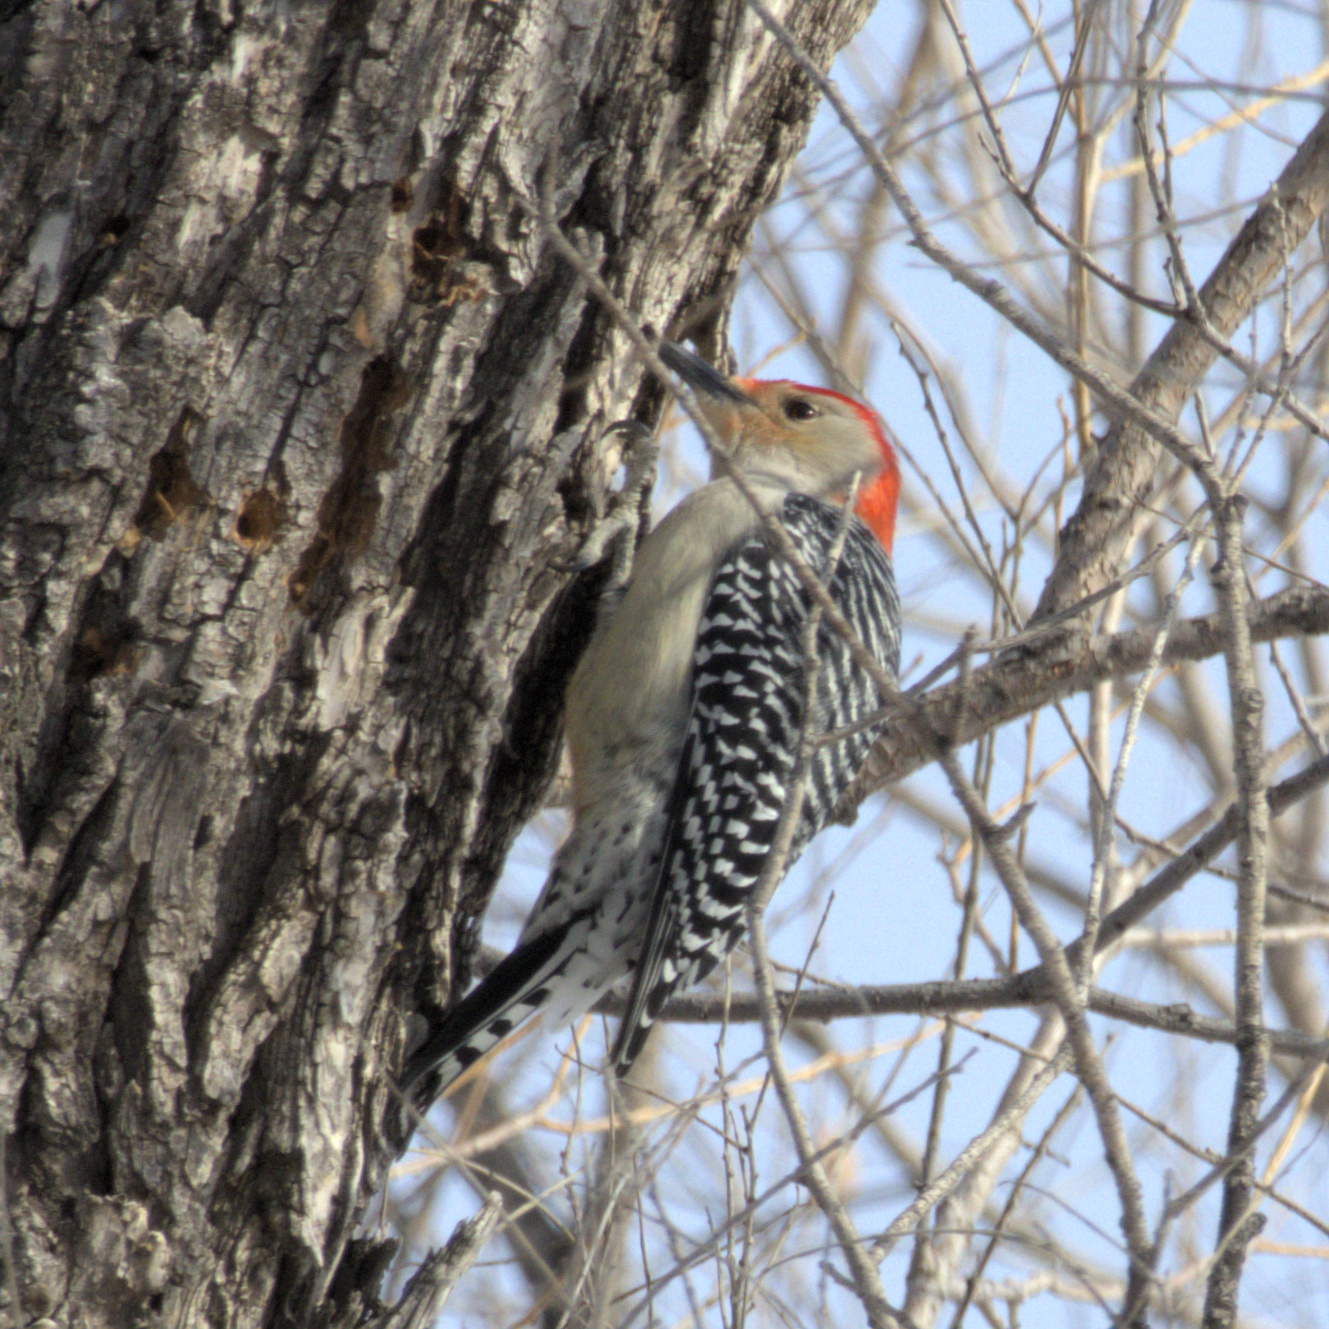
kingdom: Animalia
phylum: Chordata
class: Aves
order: Piciformes
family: Picidae
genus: Melanerpes
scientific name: Melanerpes carolinus
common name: Red-bellied woodpecker
